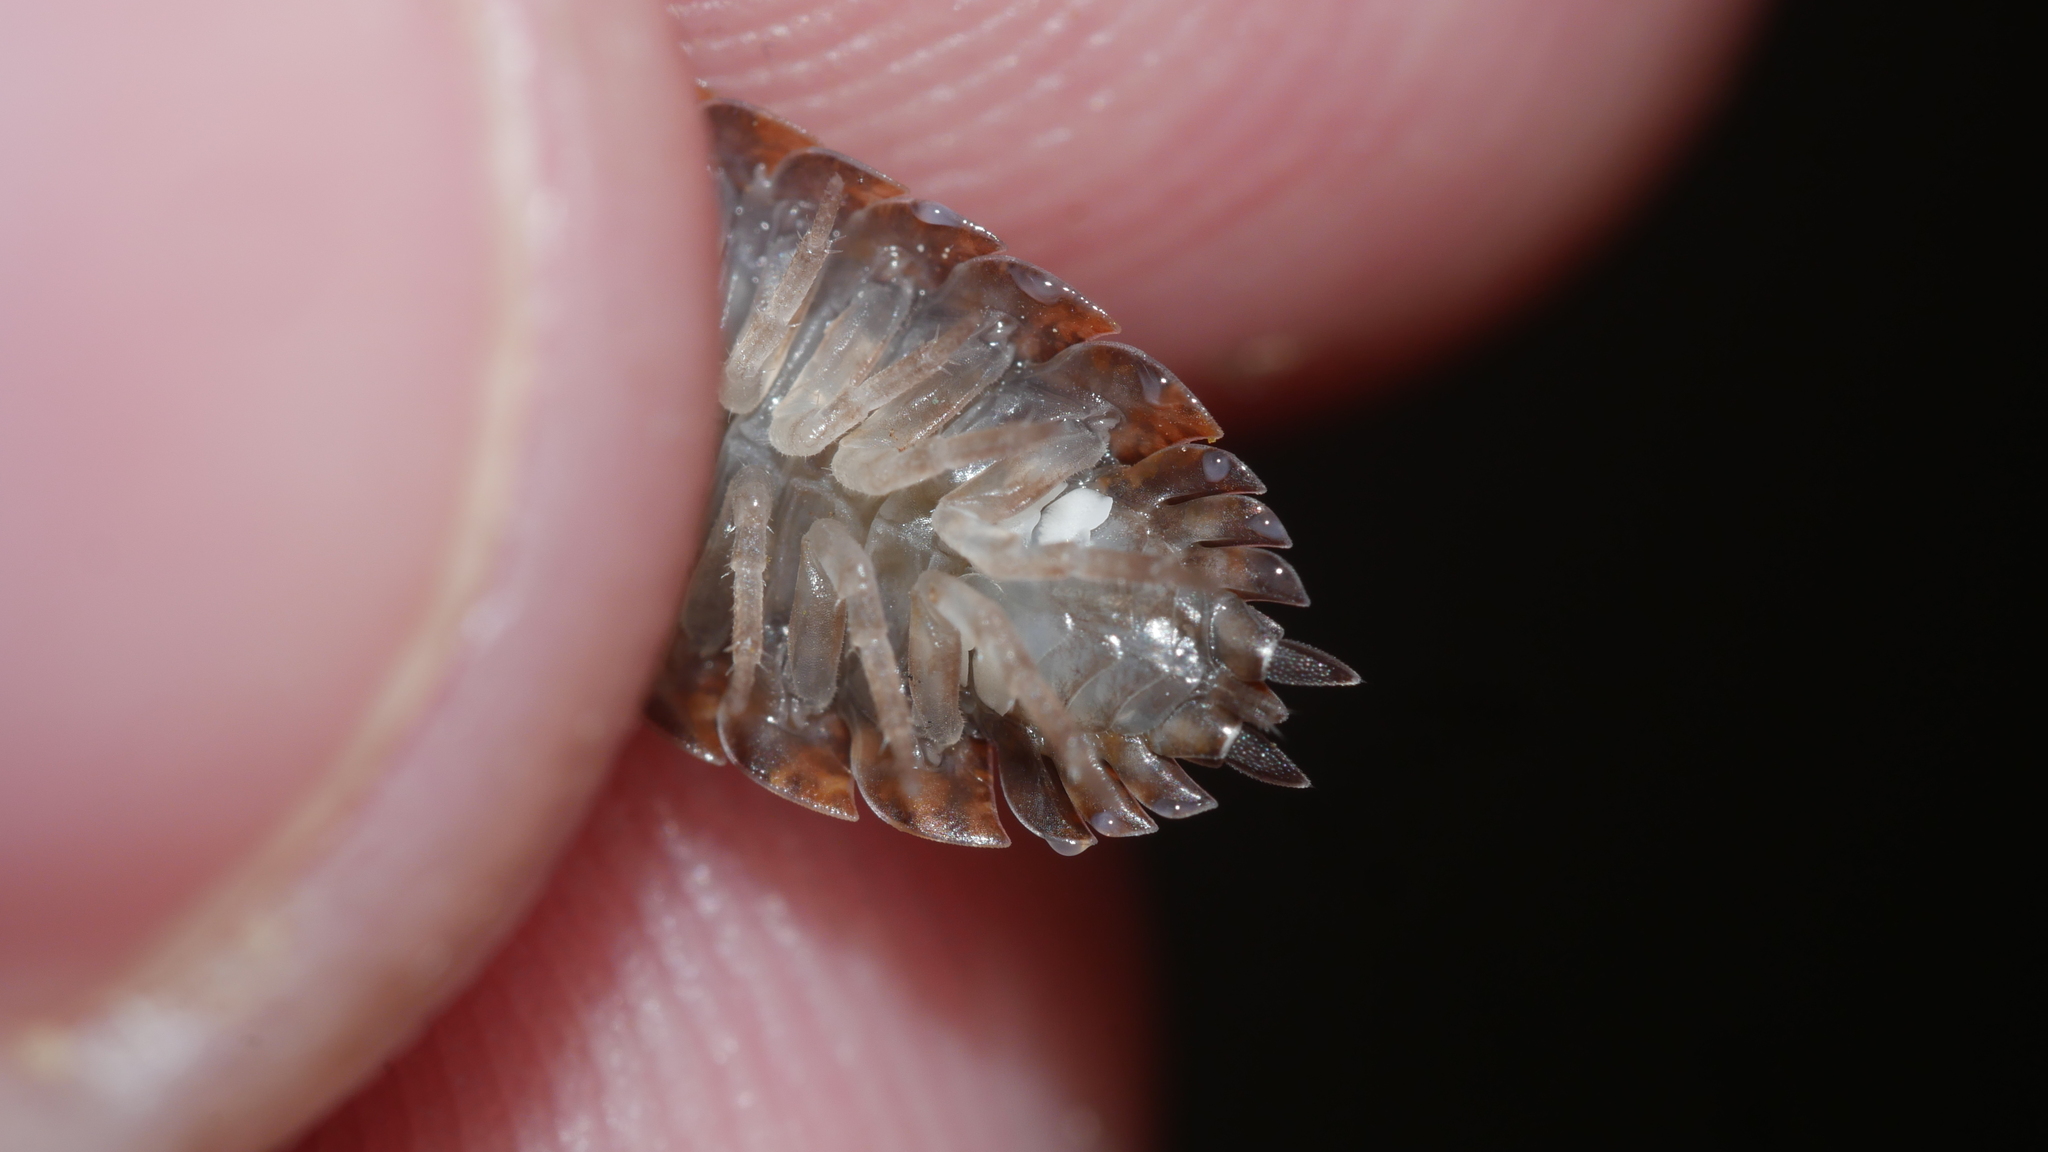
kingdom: Animalia
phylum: Arthropoda
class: Malacostraca
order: Isopoda
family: Porcellionidae
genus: Porcellio
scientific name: Porcellio scaber
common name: Common rough woodlouse
